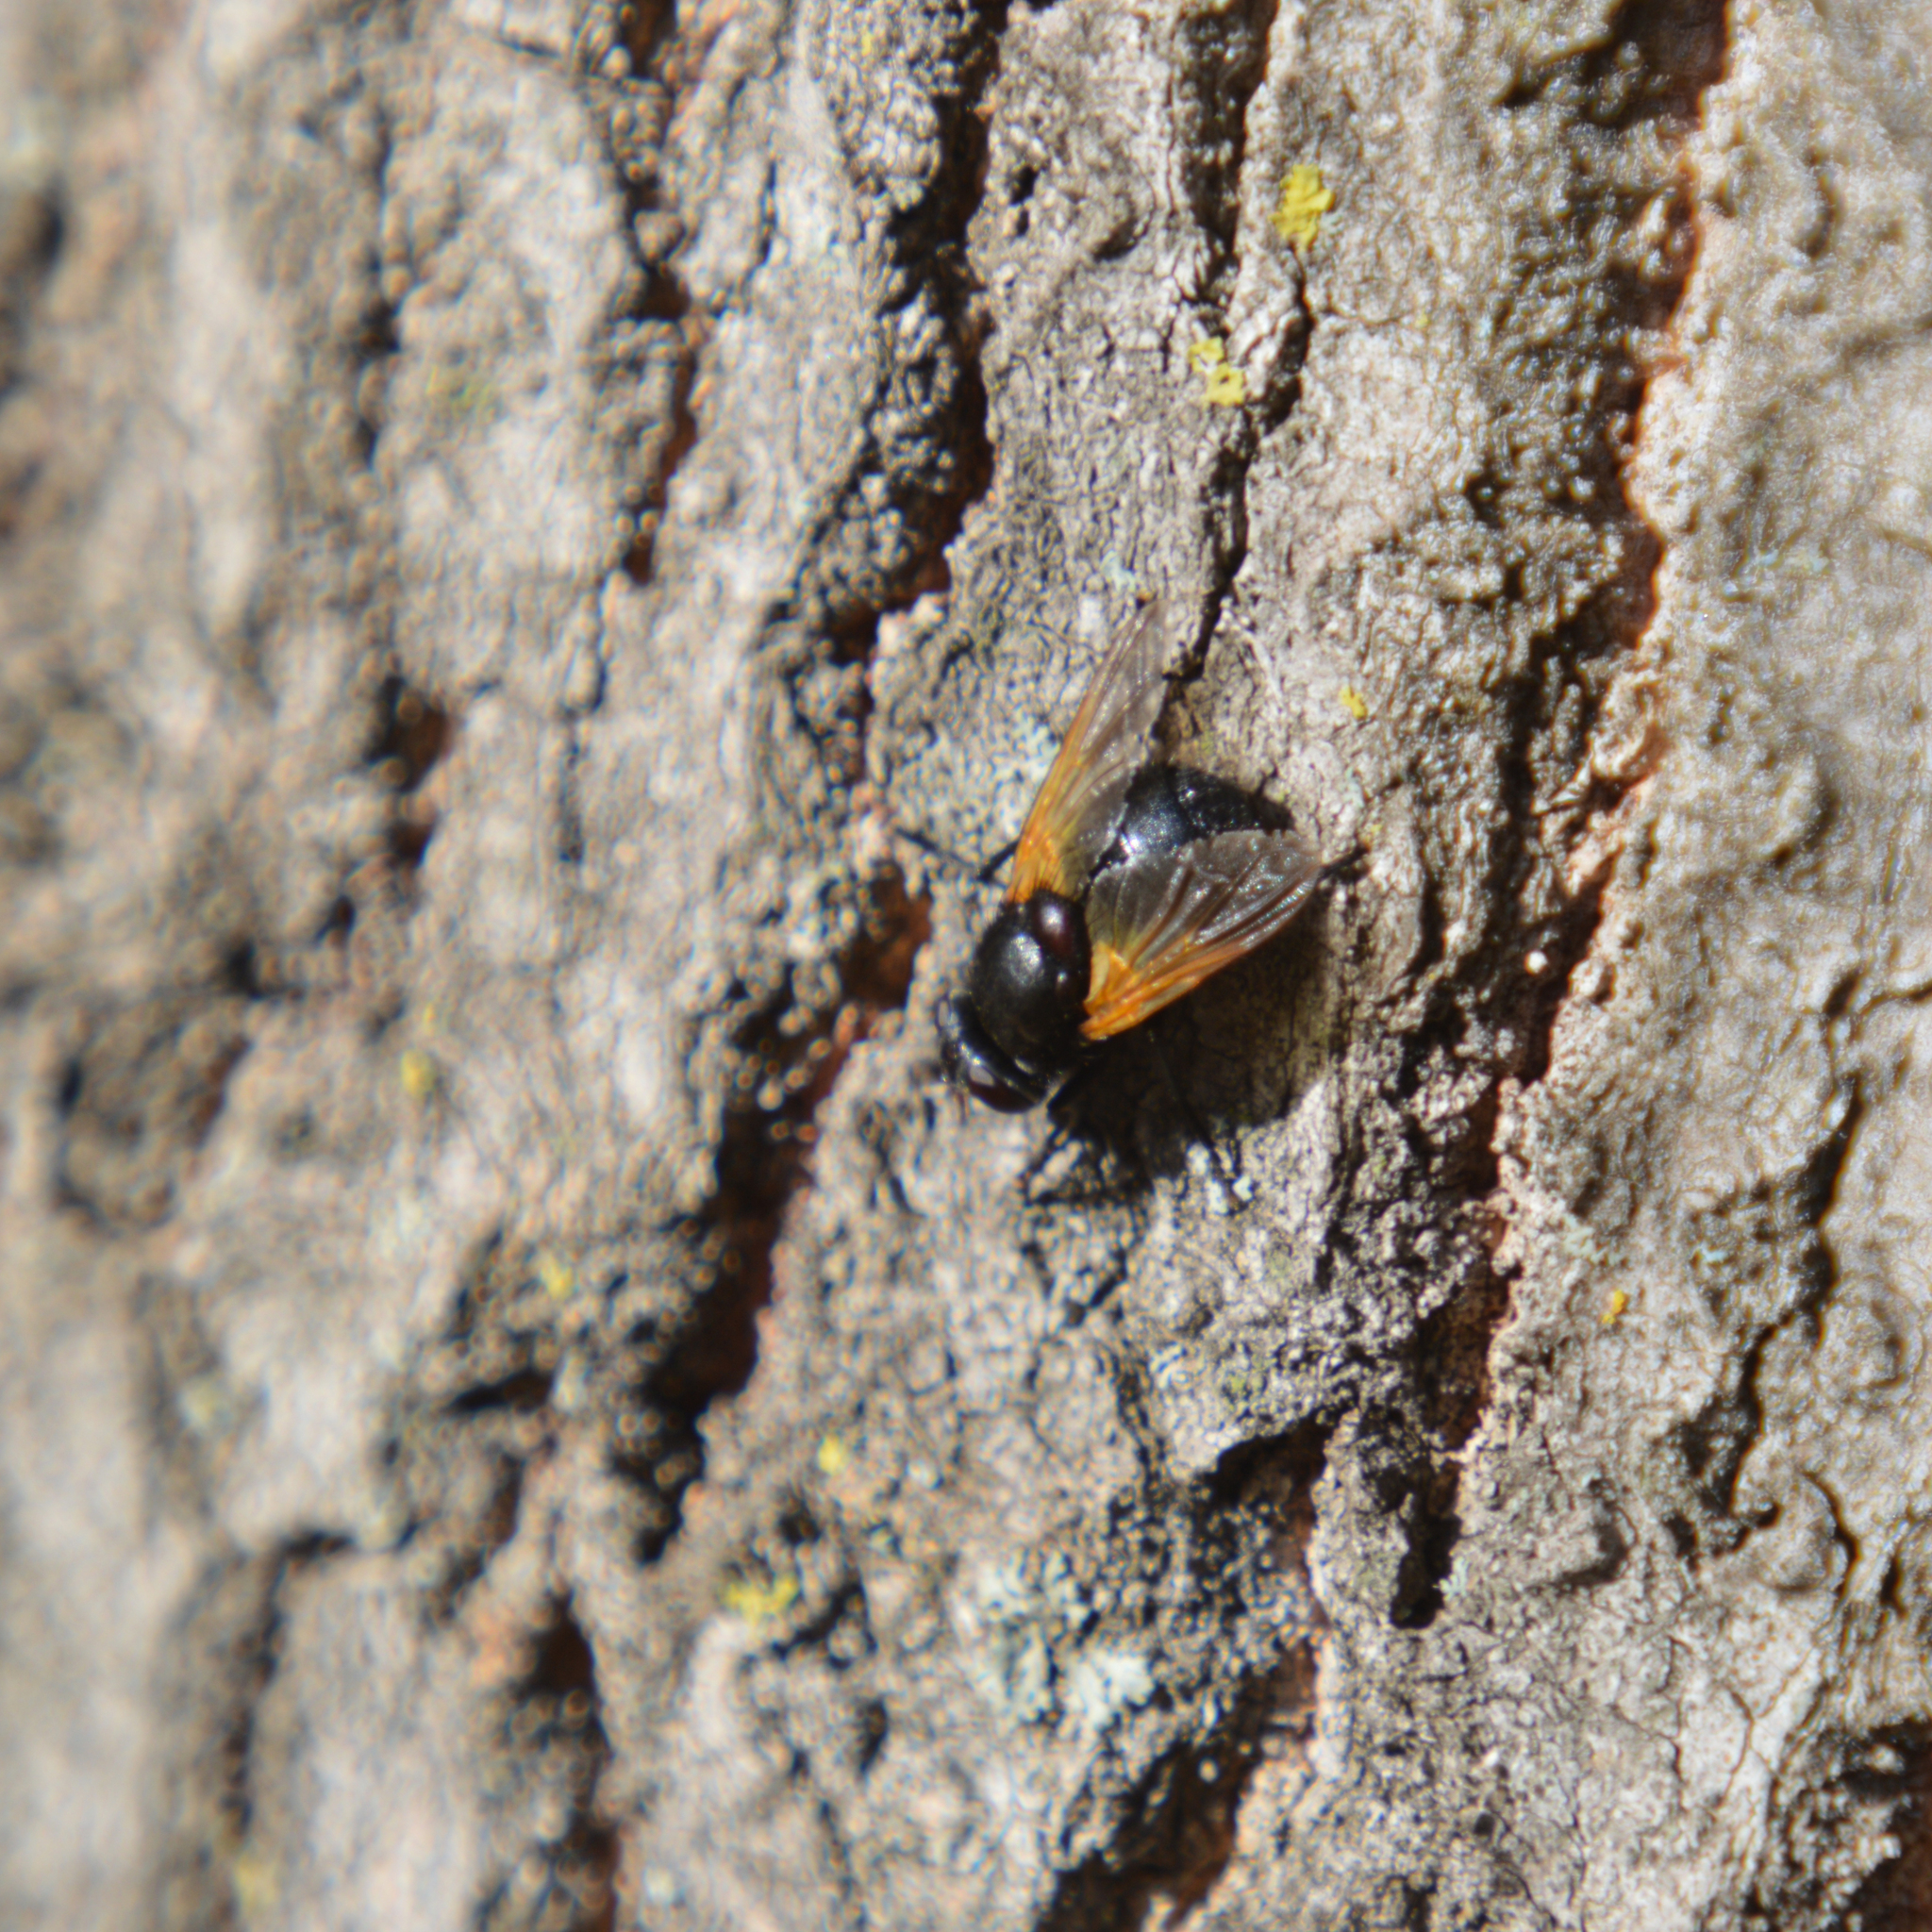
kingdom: Animalia
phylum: Arthropoda
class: Insecta
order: Diptera
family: Muscidae
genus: Mesembrina
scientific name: Mesembrina meridiana
